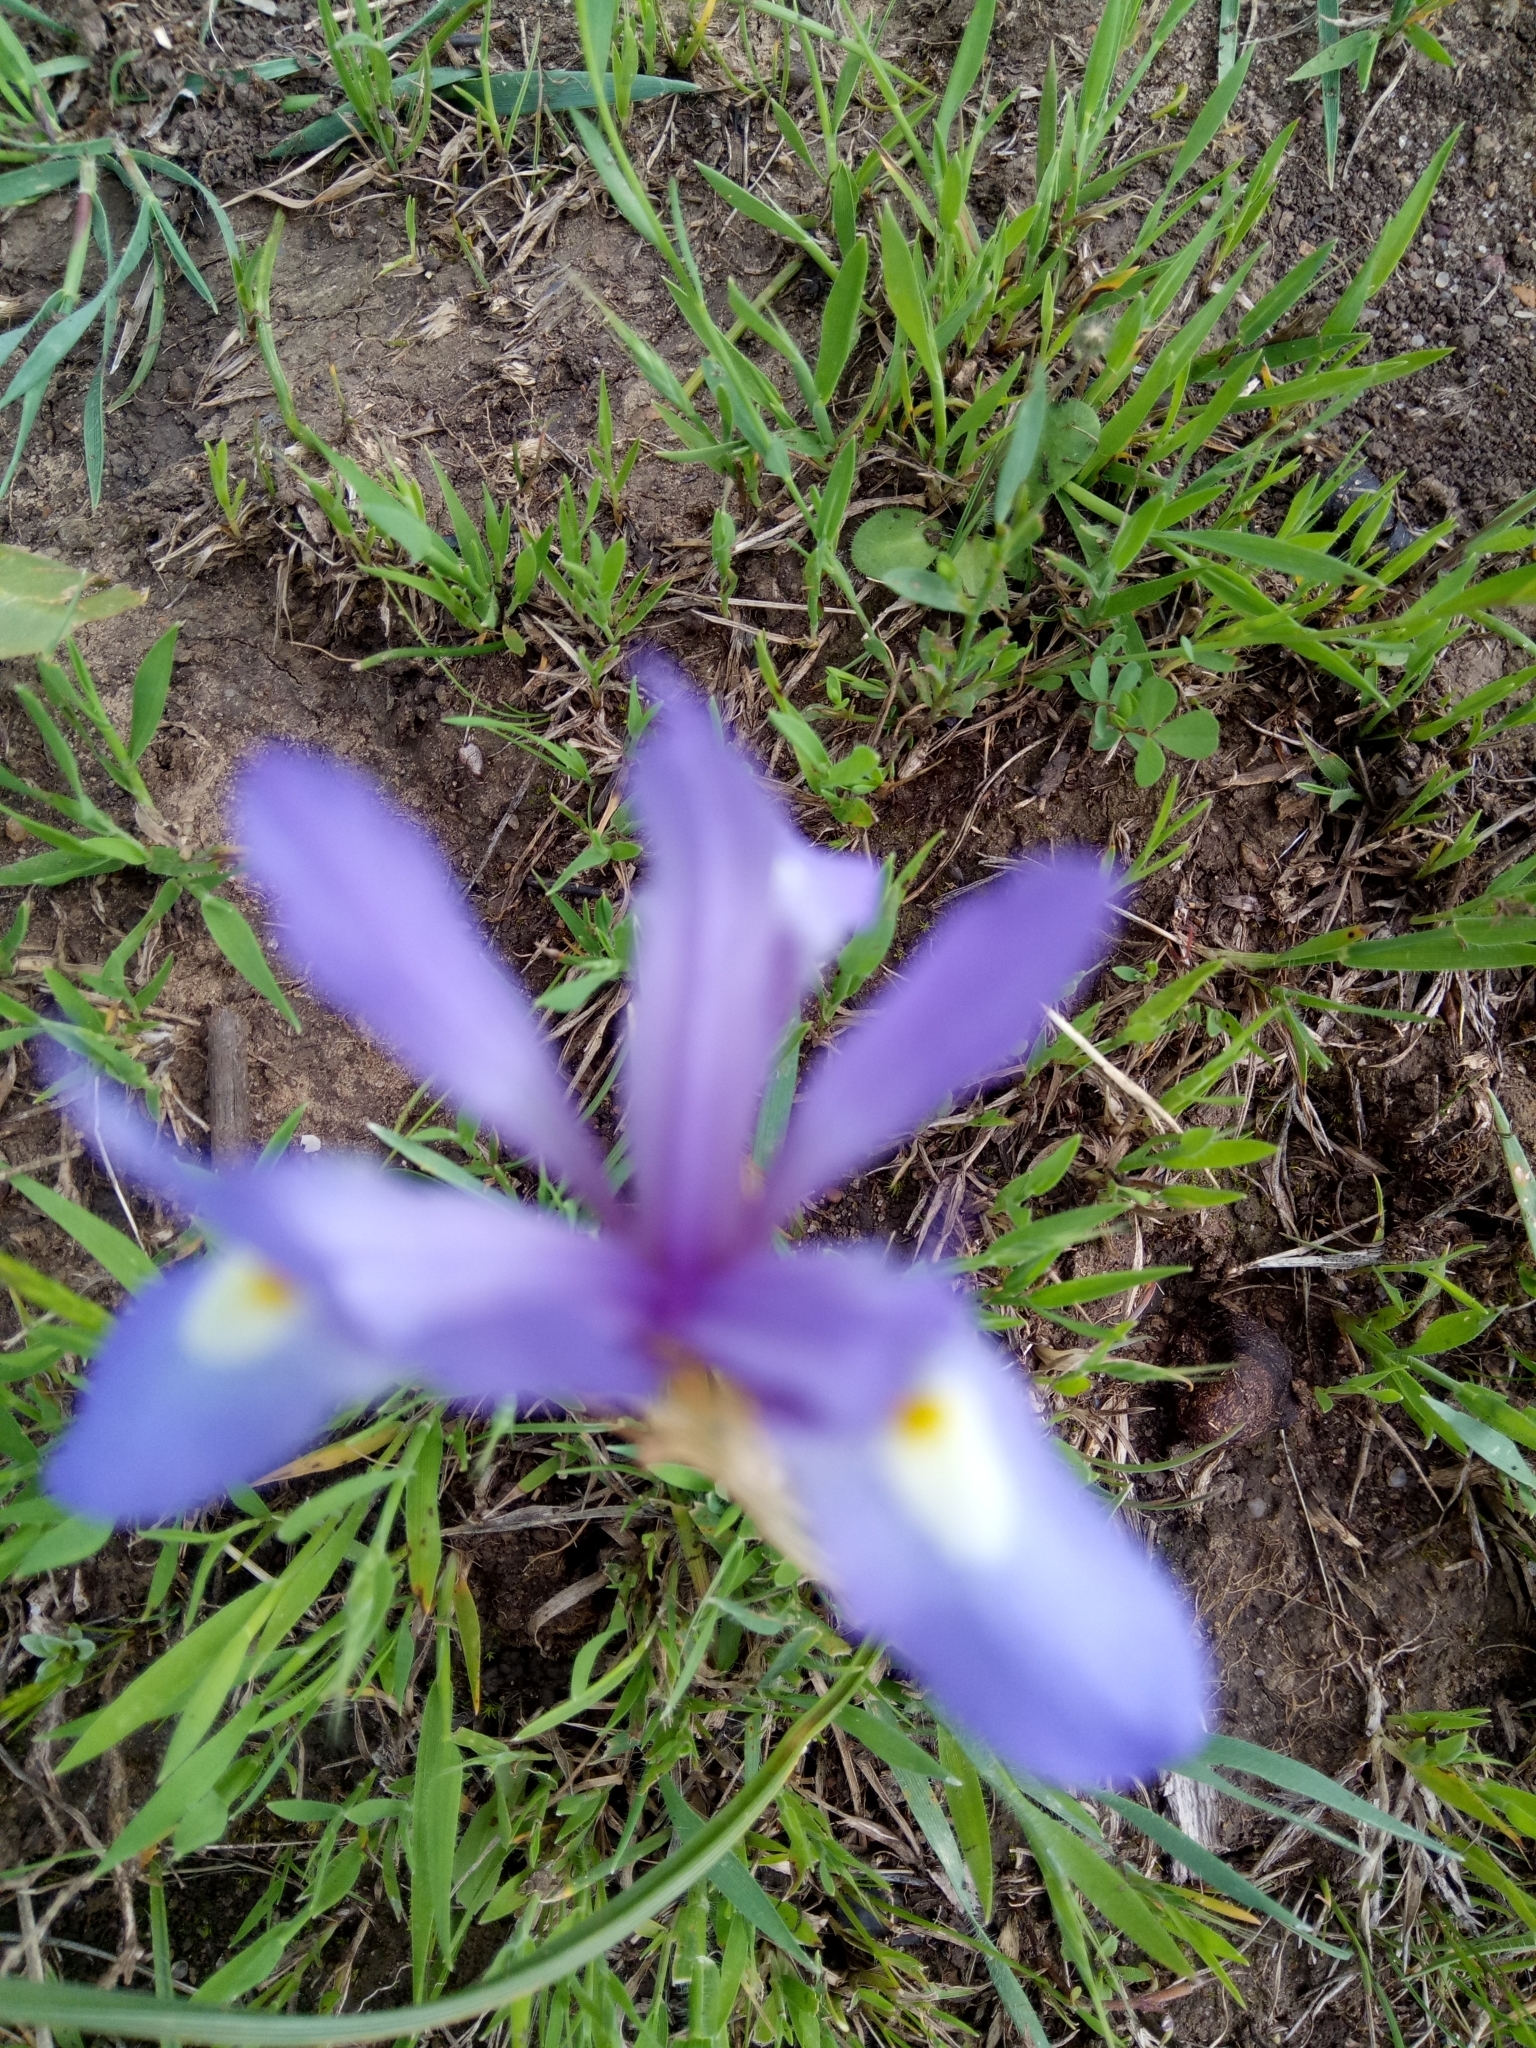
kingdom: Plantae
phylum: Tracheophyta
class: Liliopsida
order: Asparagales
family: Iridaceae
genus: Moraea
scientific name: Moraea sisyrinchium
